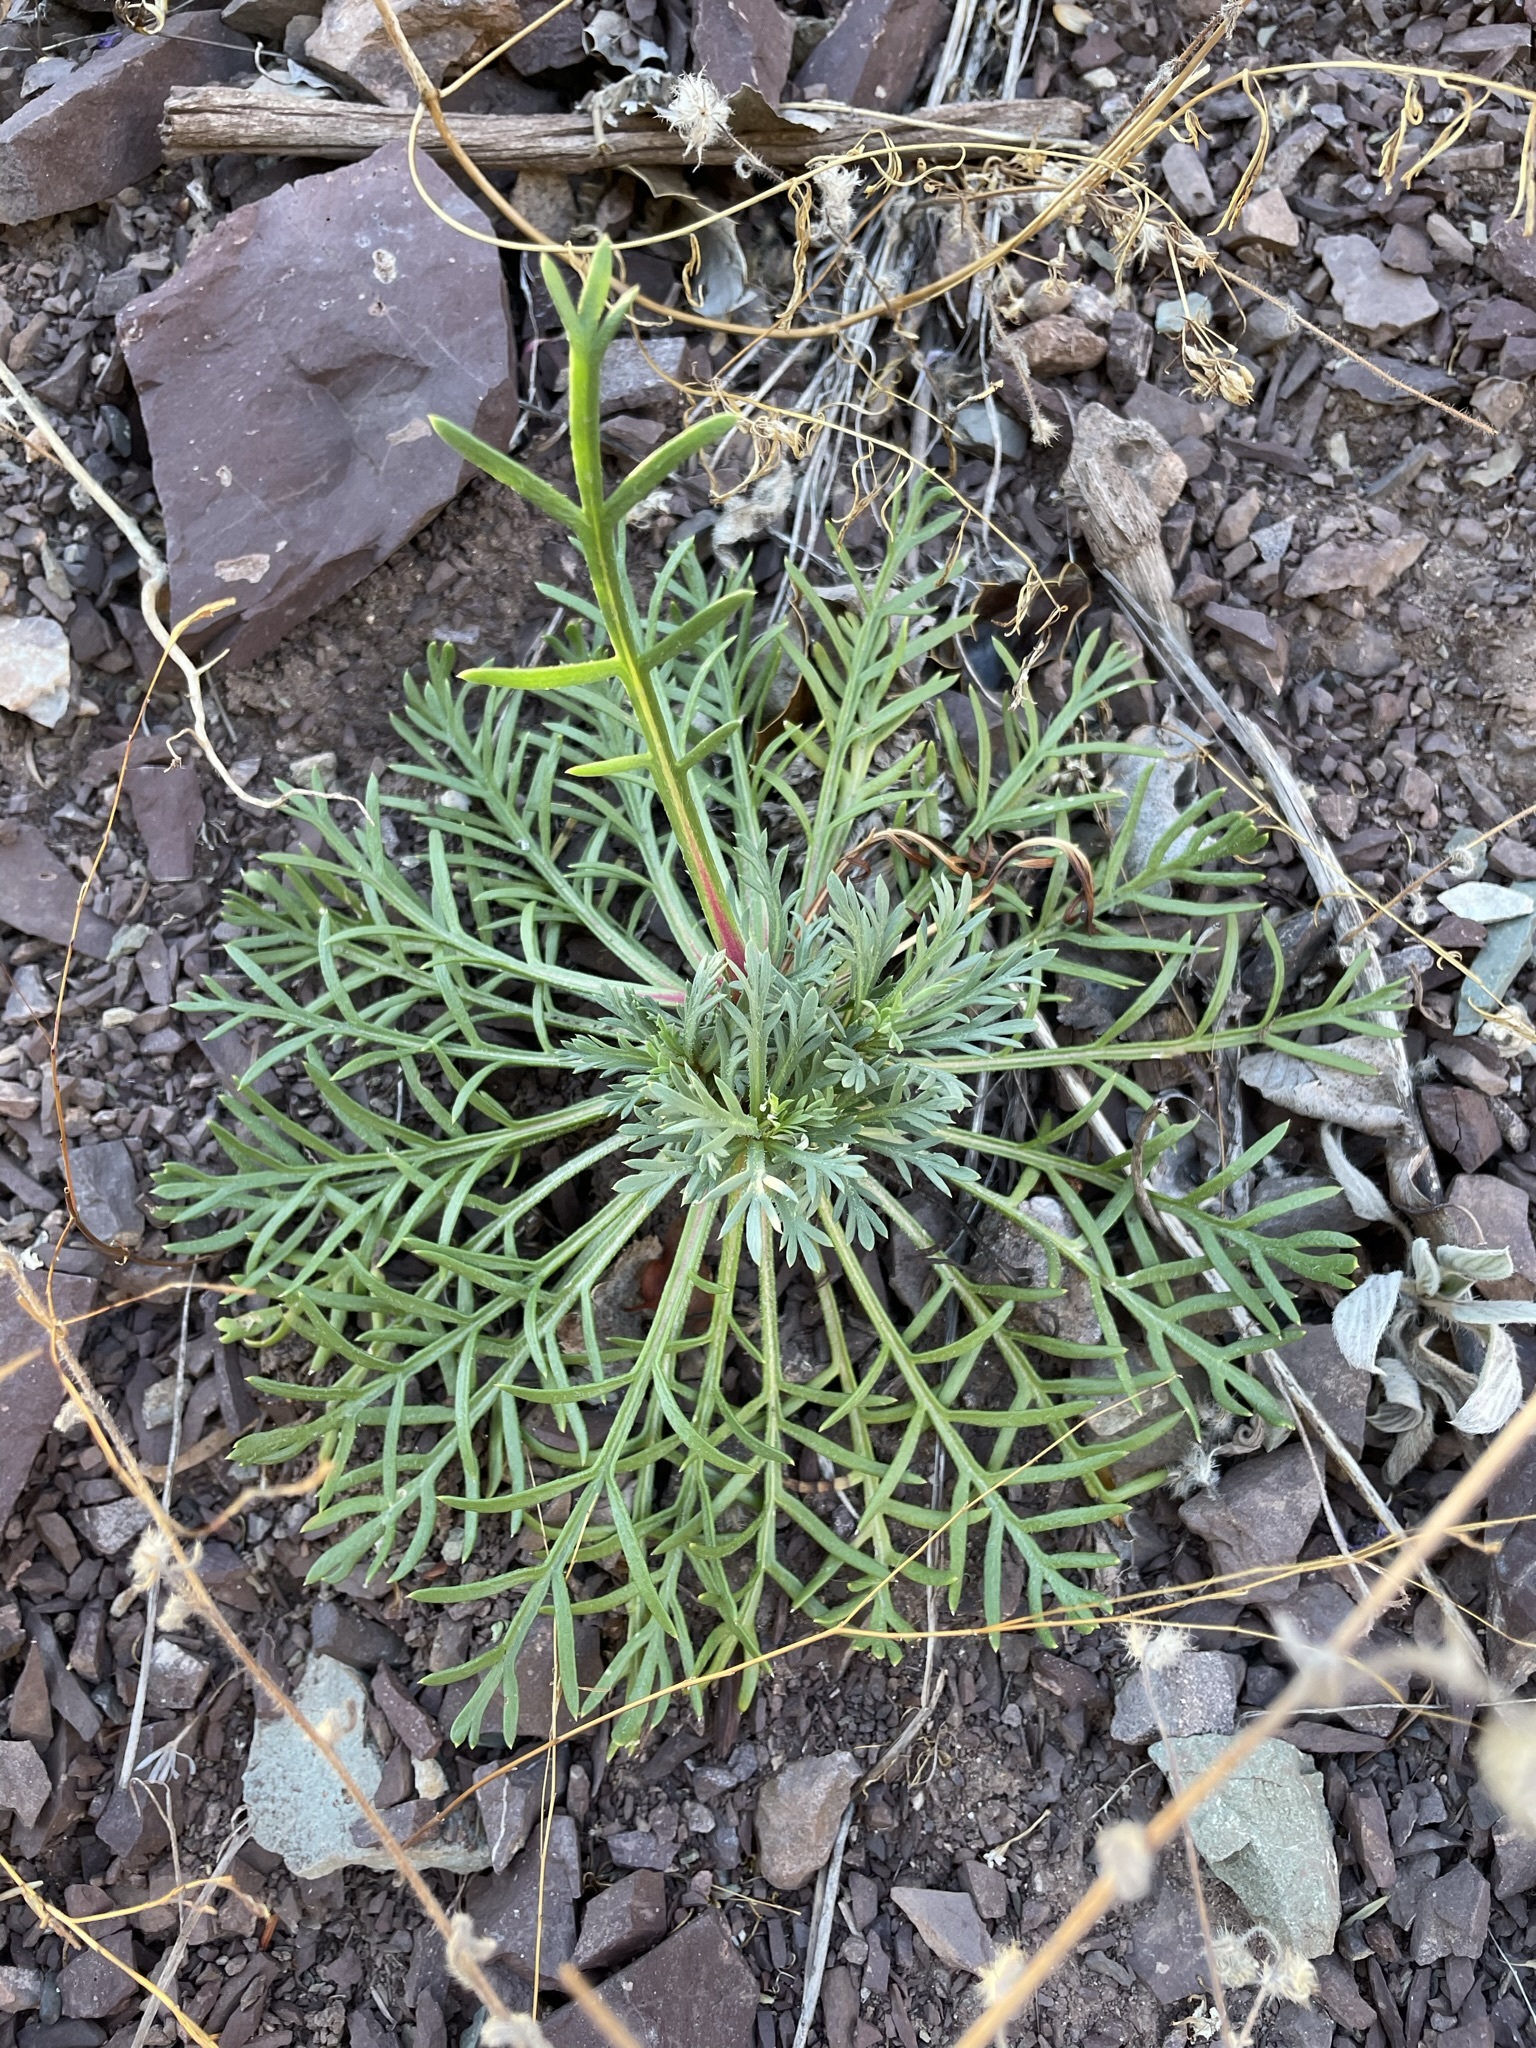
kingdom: Plantae
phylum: Tracheophyta
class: Magnoliopsida
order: Ericales
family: Polemoniaceae
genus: Ipomopsis
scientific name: Ipomopsis aggregata
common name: Scarlet gilia
